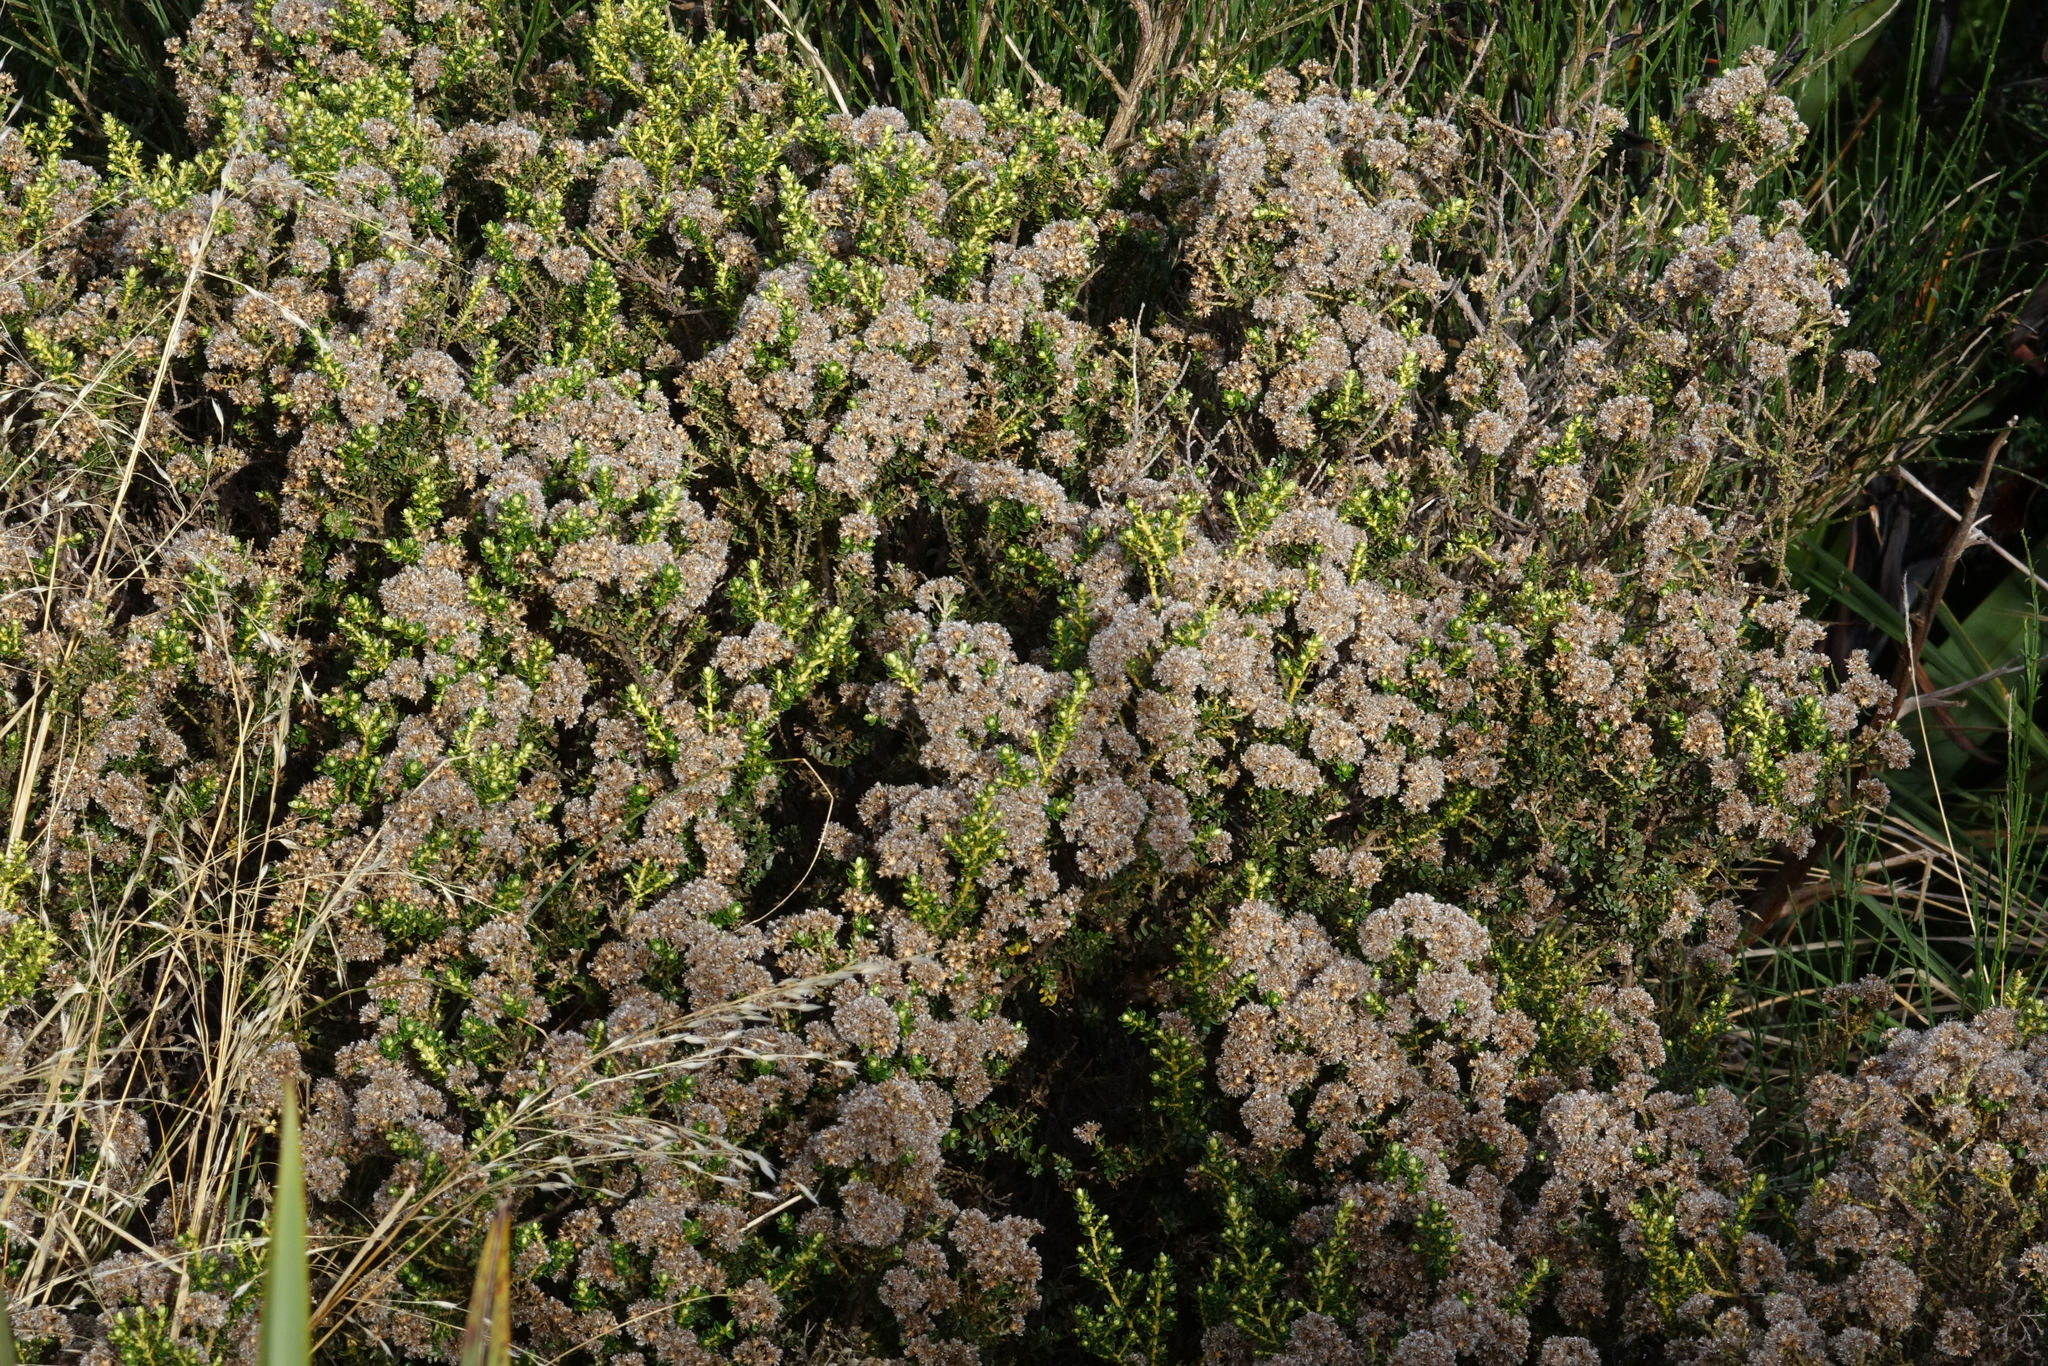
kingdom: Plantae
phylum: Tracheophyta
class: Magnoliopsida
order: Asterales
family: Asteraceae
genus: Ozothamnus
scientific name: Ozothamnus leptophyllus
